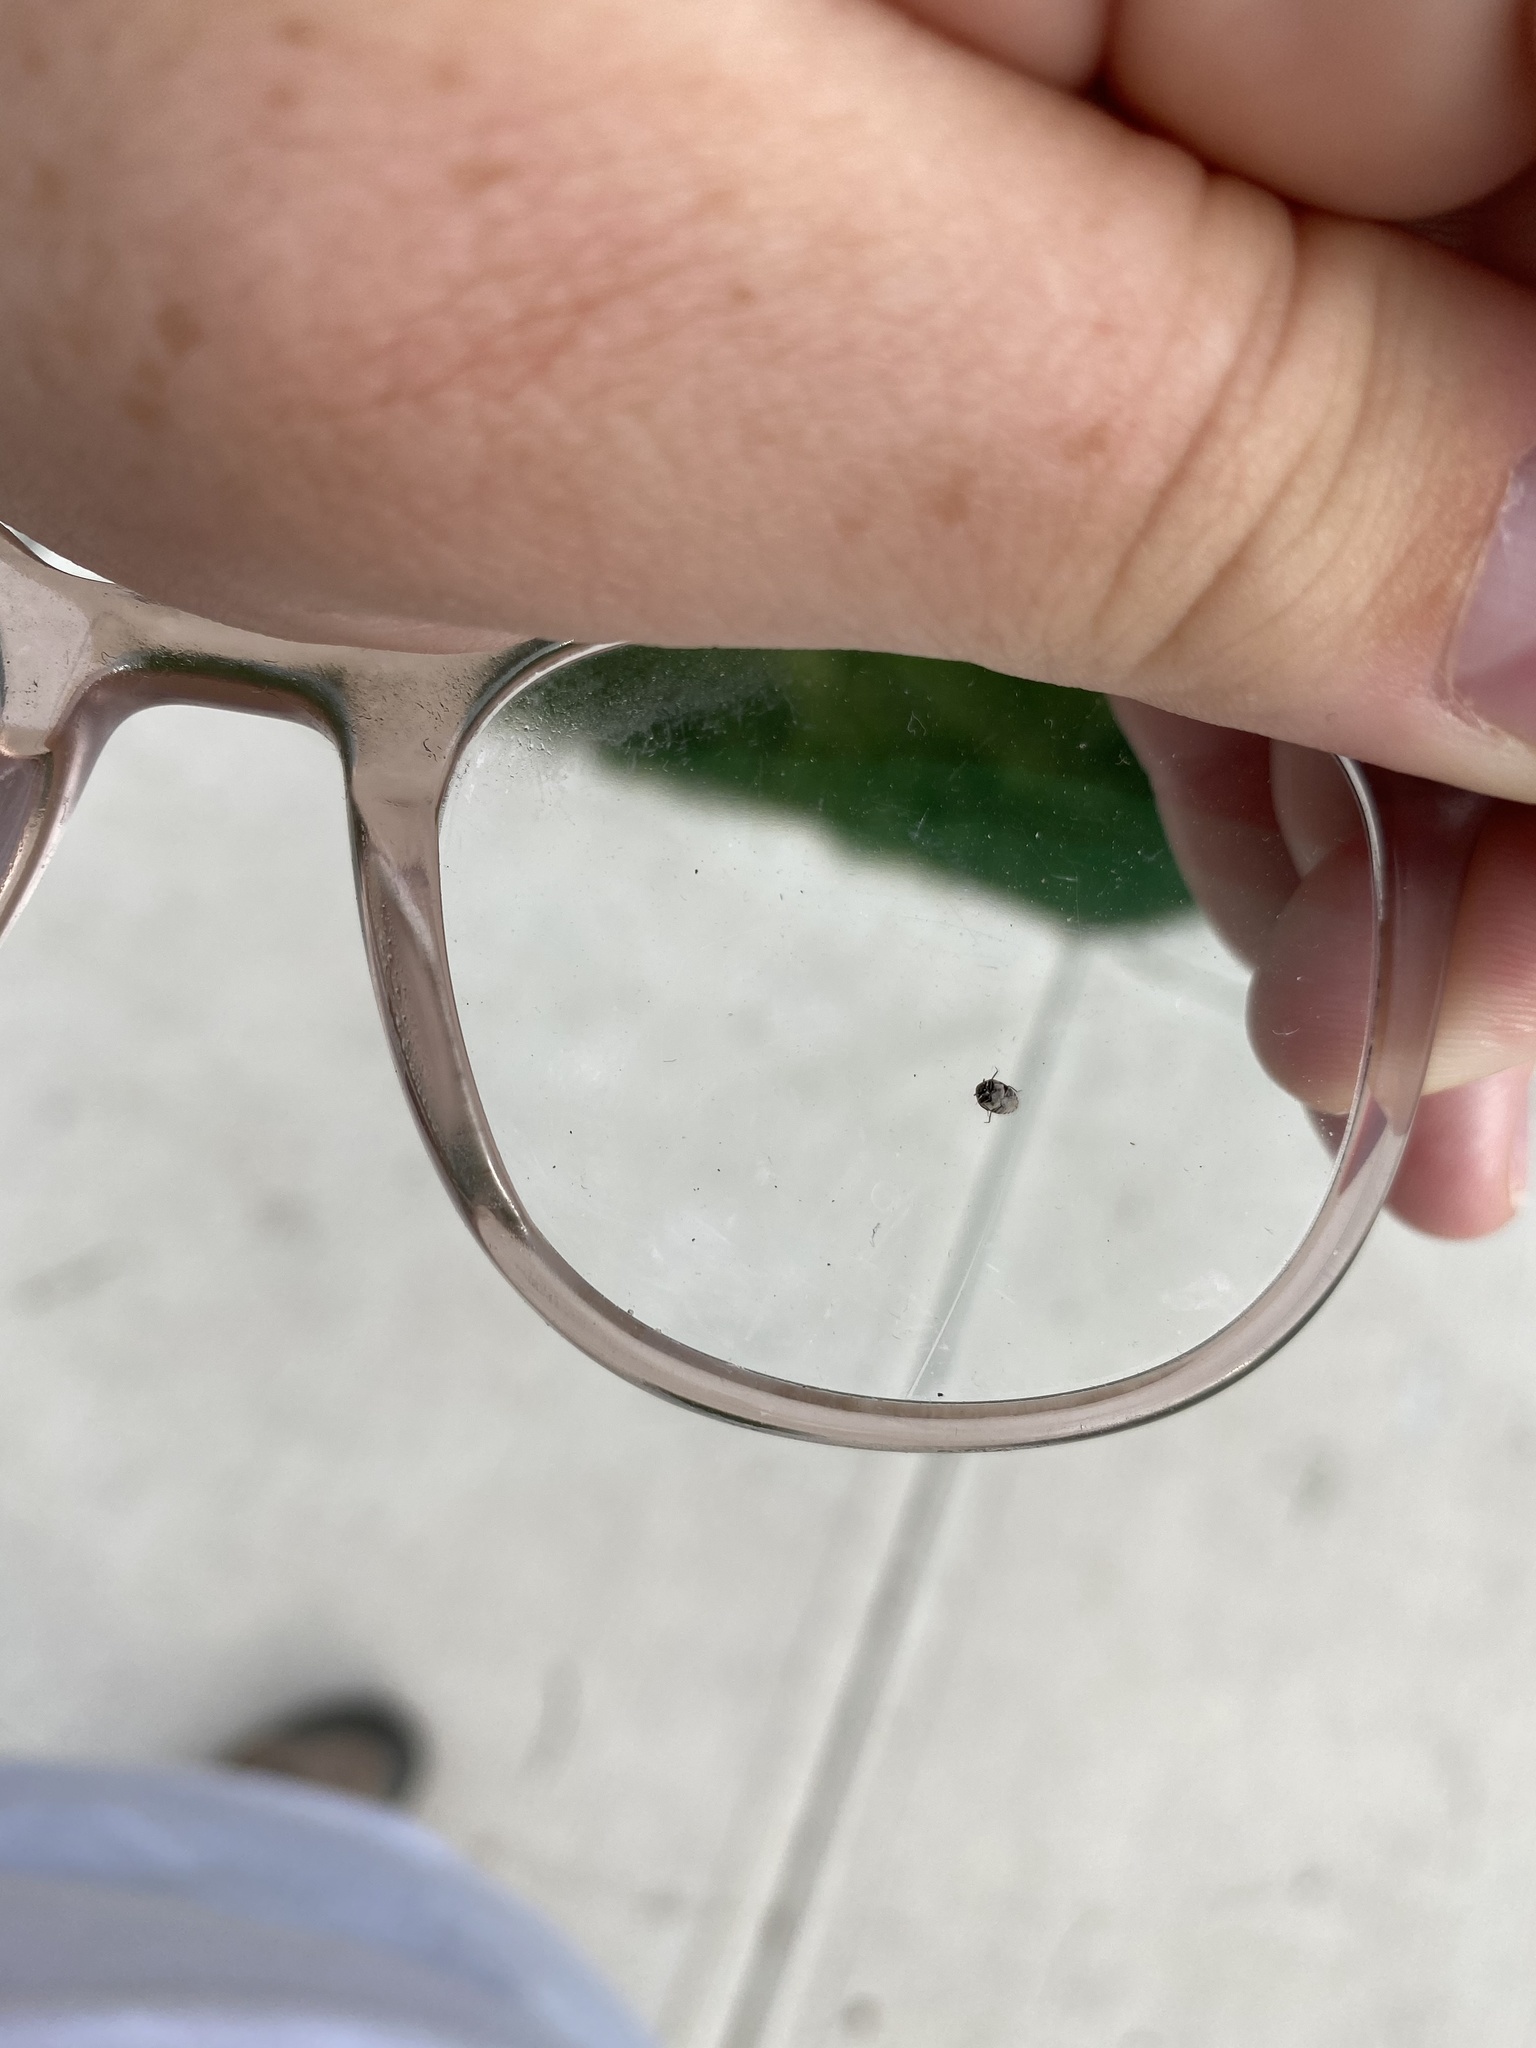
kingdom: Animalia
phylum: Arthropoda
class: Insecta
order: Coleoptera
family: Dermestidae
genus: Anthrenus
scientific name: Anthrenus verbasci
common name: Varied carpet beetle
